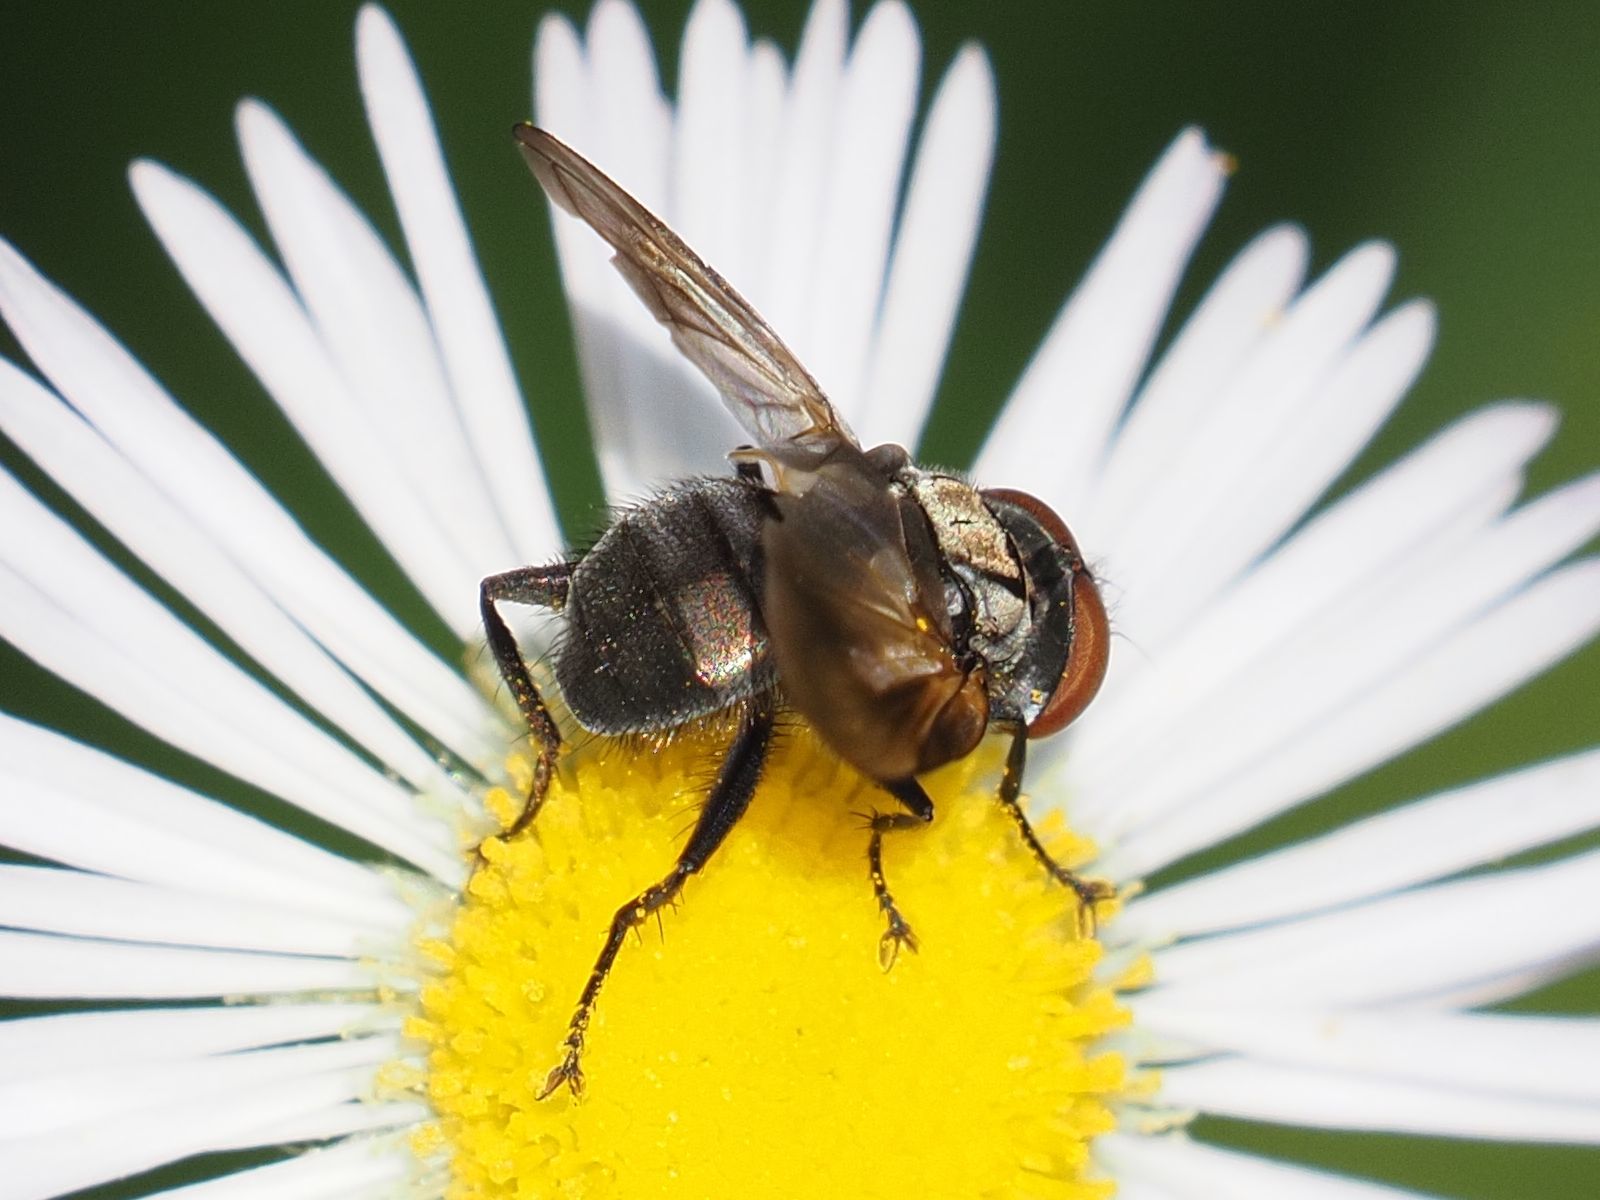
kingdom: Animalia
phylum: Arthropoda
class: Insecta
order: Diptera
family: Tachinidae
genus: Phasia
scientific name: Phasia obesa
